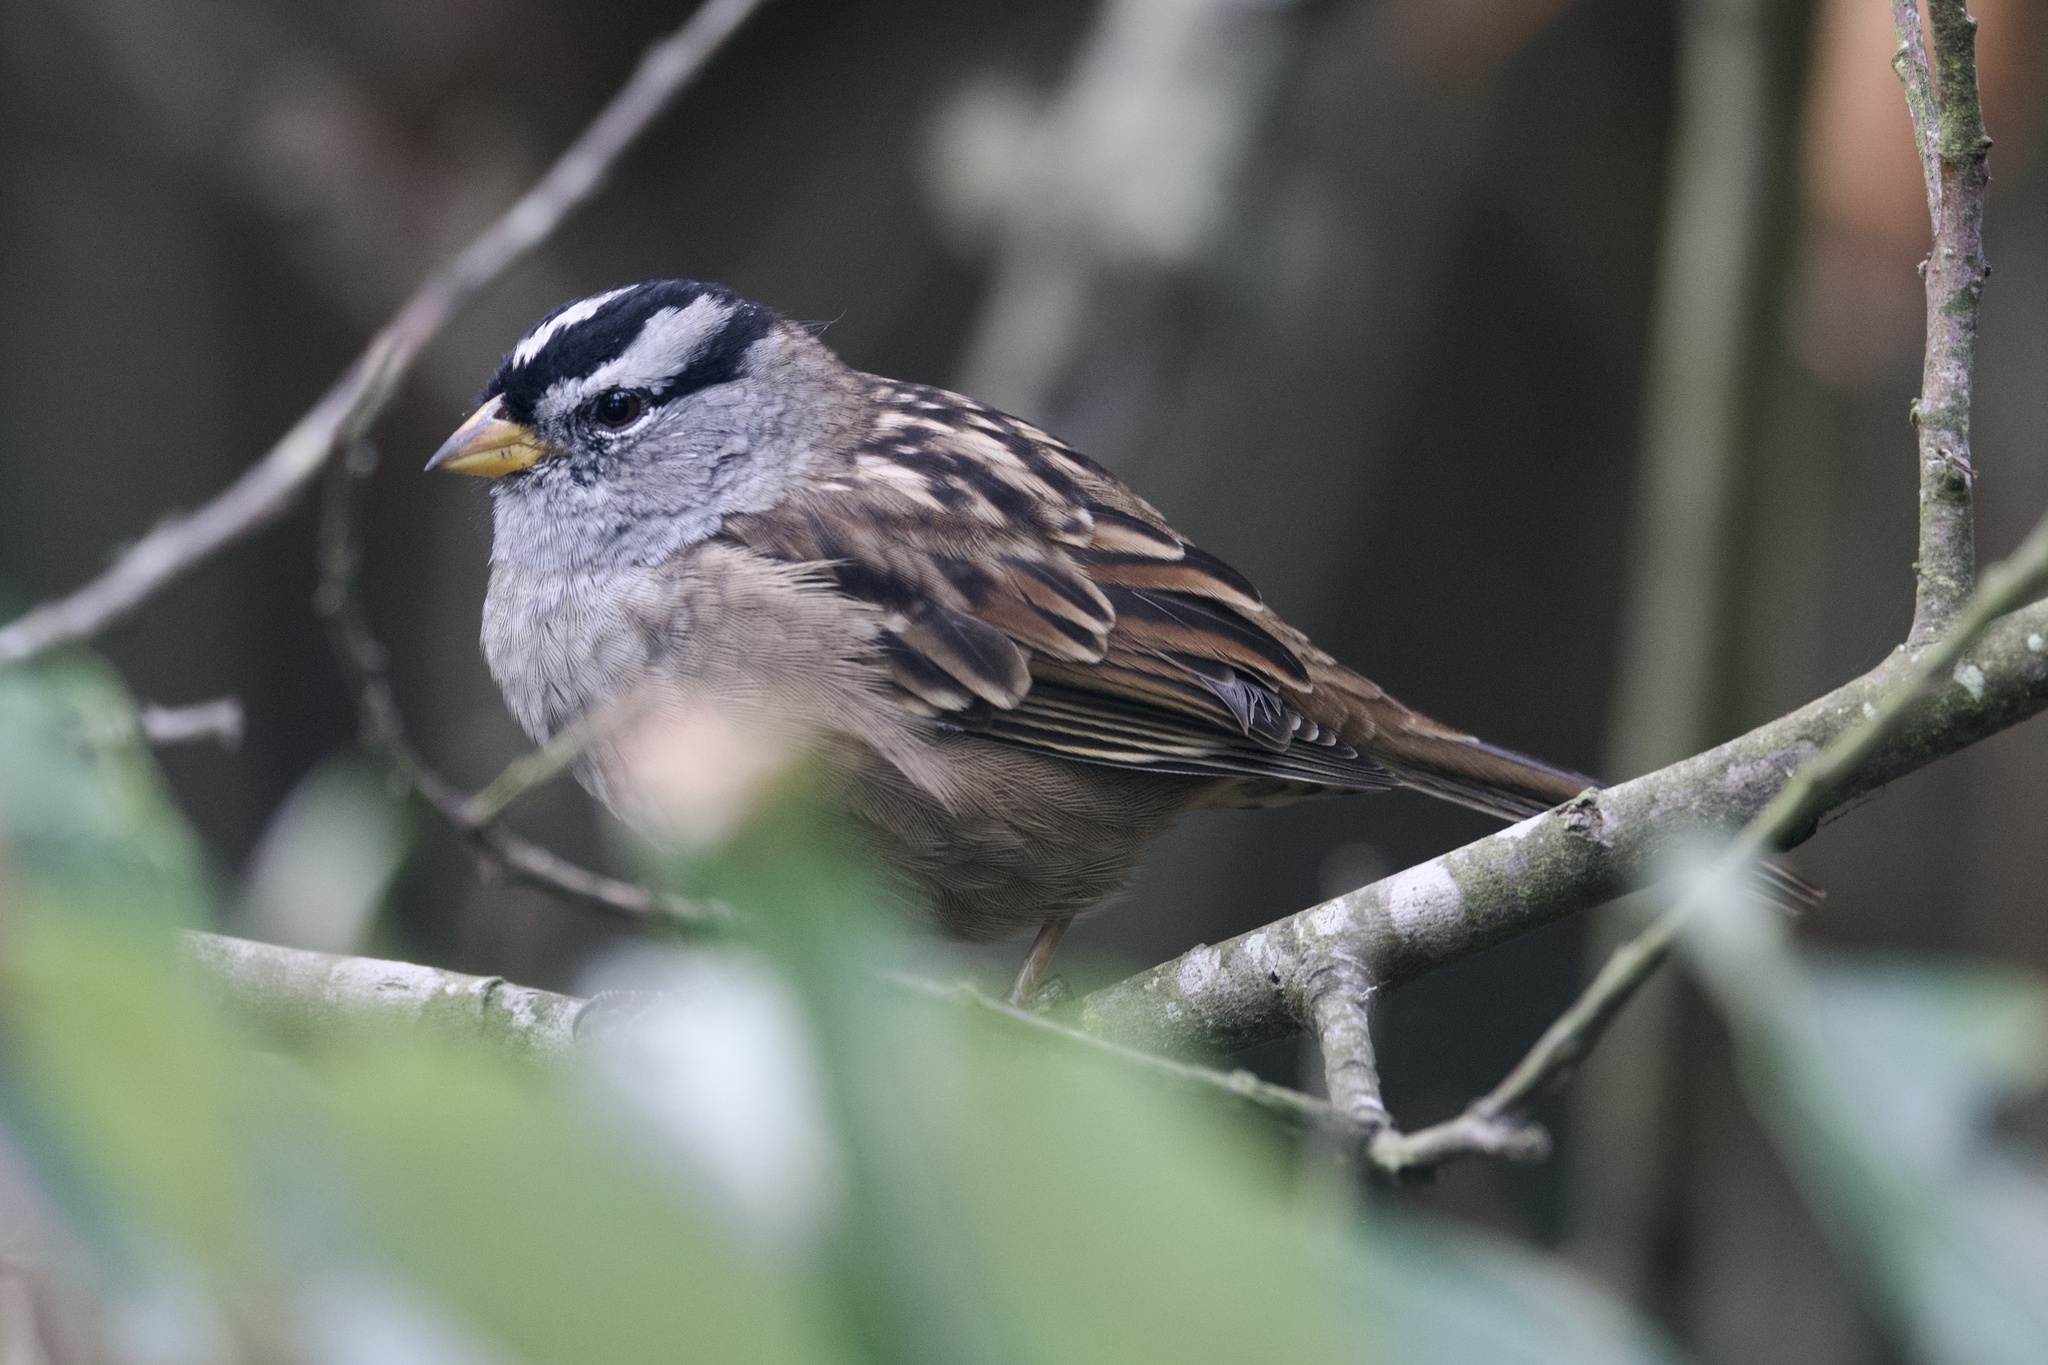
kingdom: Animalia
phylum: Chordata
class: Aves
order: Passeriformes
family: Passerellidae
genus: Zonotrichia
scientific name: Zonotrichia leucophrys
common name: White-crowned sparrow
